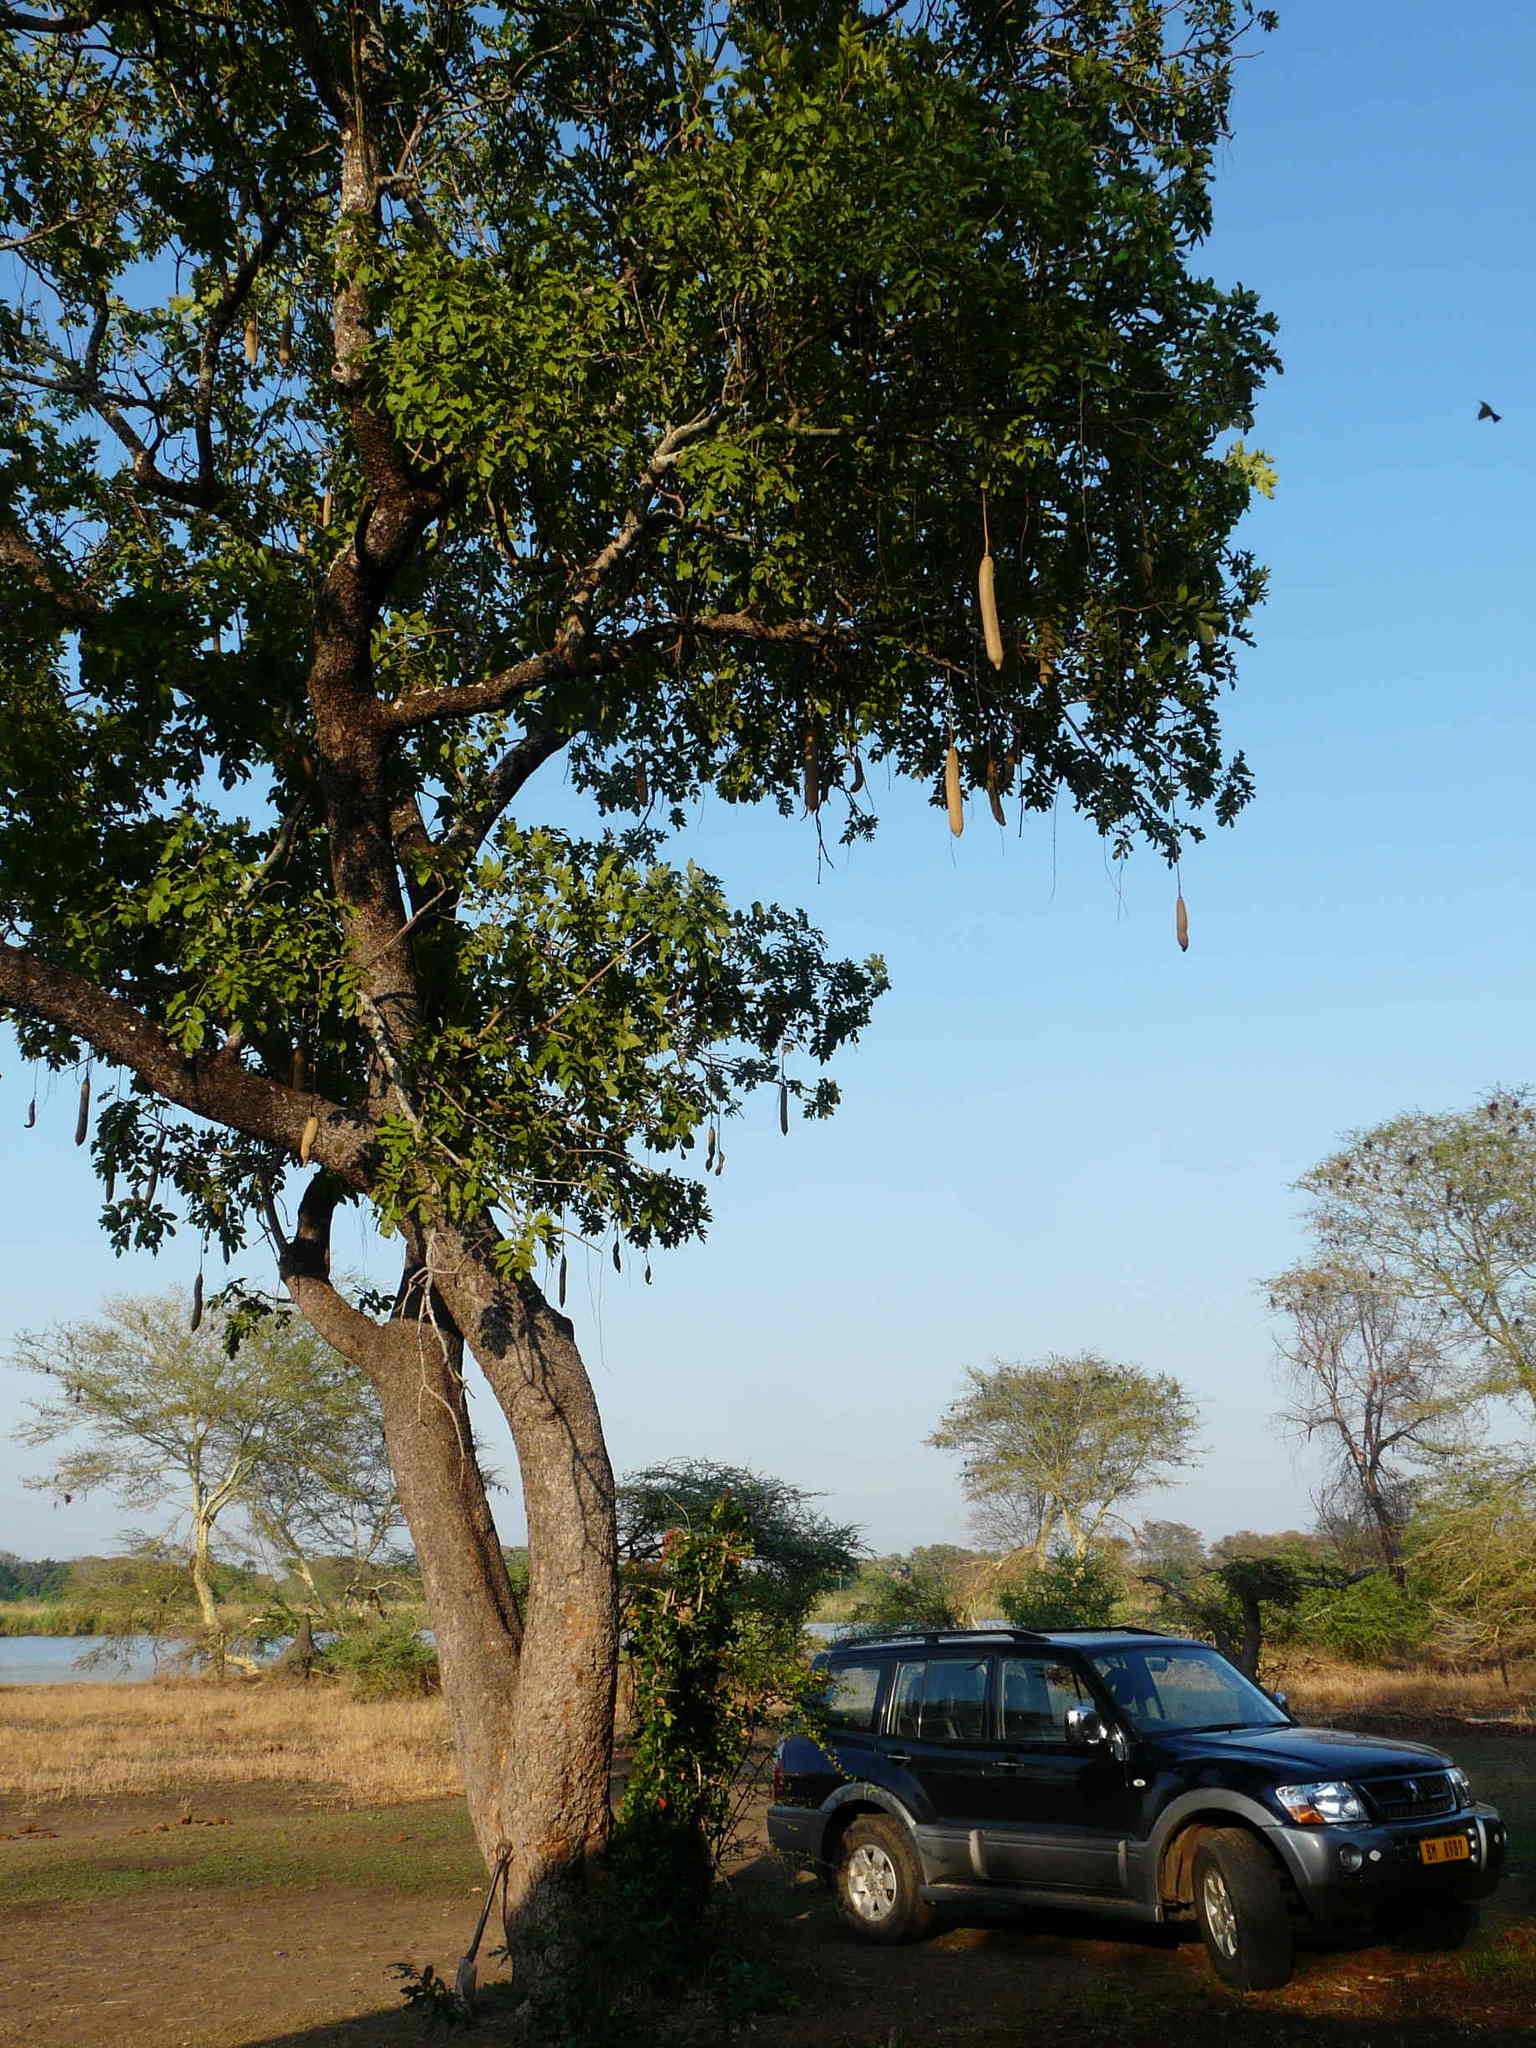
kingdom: Plantae
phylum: Tracheophyta
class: Magnoliopsida
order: Lamiales
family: Bignoniaceae
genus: Kigelia
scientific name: Kigelia africana
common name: Sausage tree
